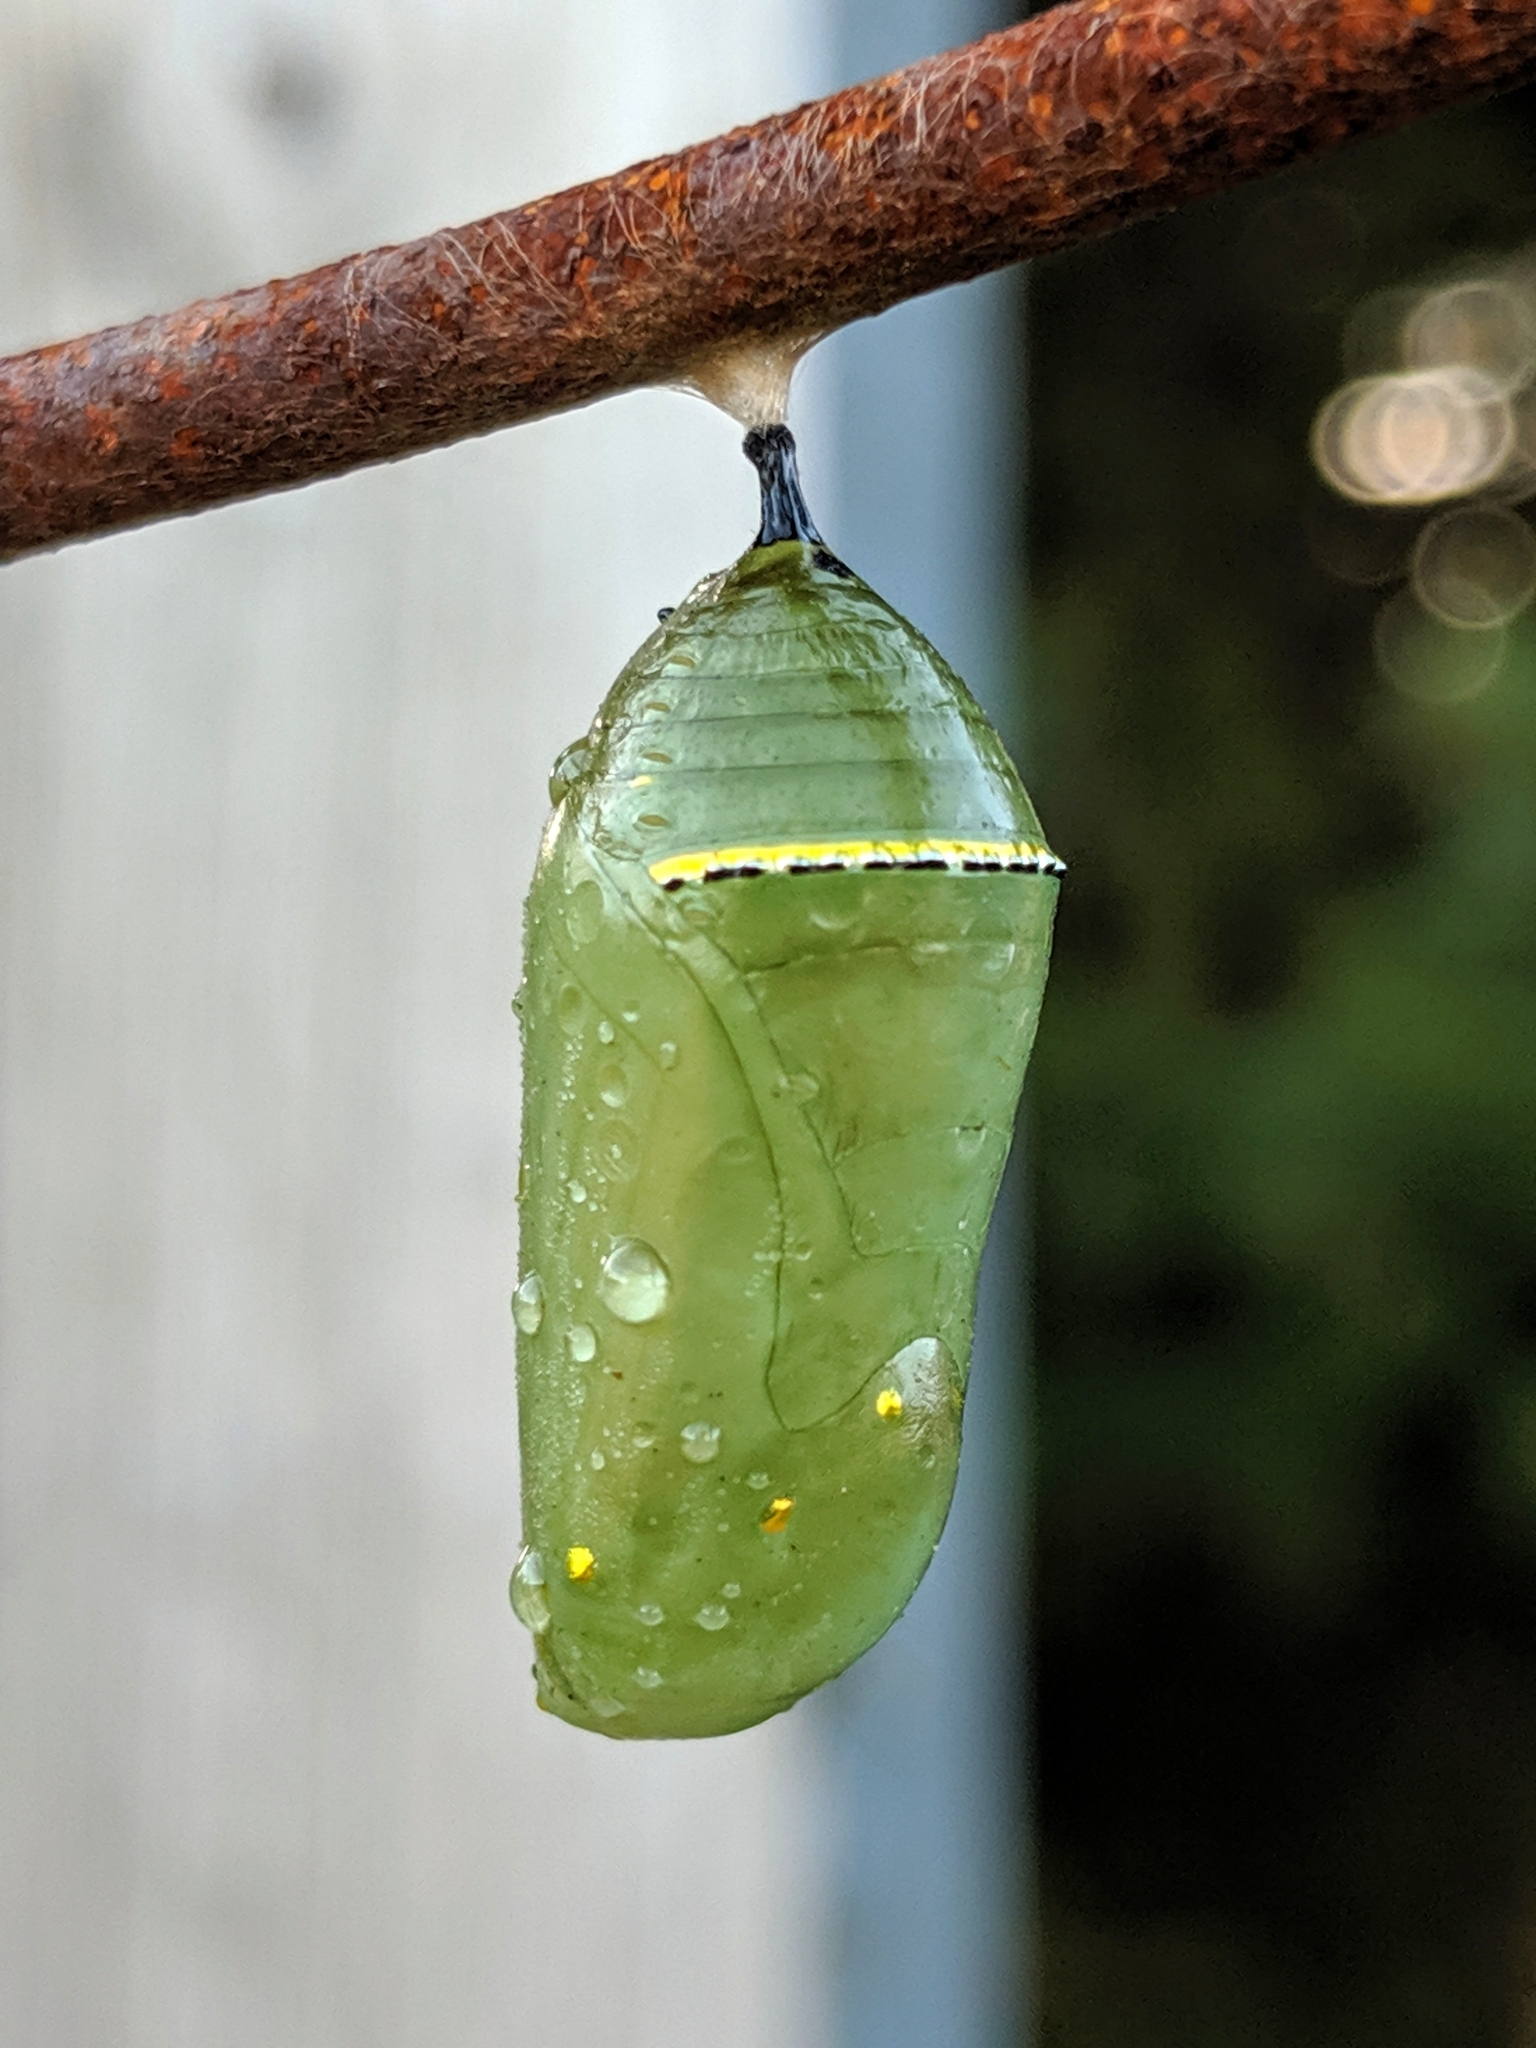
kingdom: Animalia
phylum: Arthropoda
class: Insecta
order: Lepidoptera
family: Nymphalidae
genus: Danaus
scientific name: Danaus plexippus
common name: Monarch
